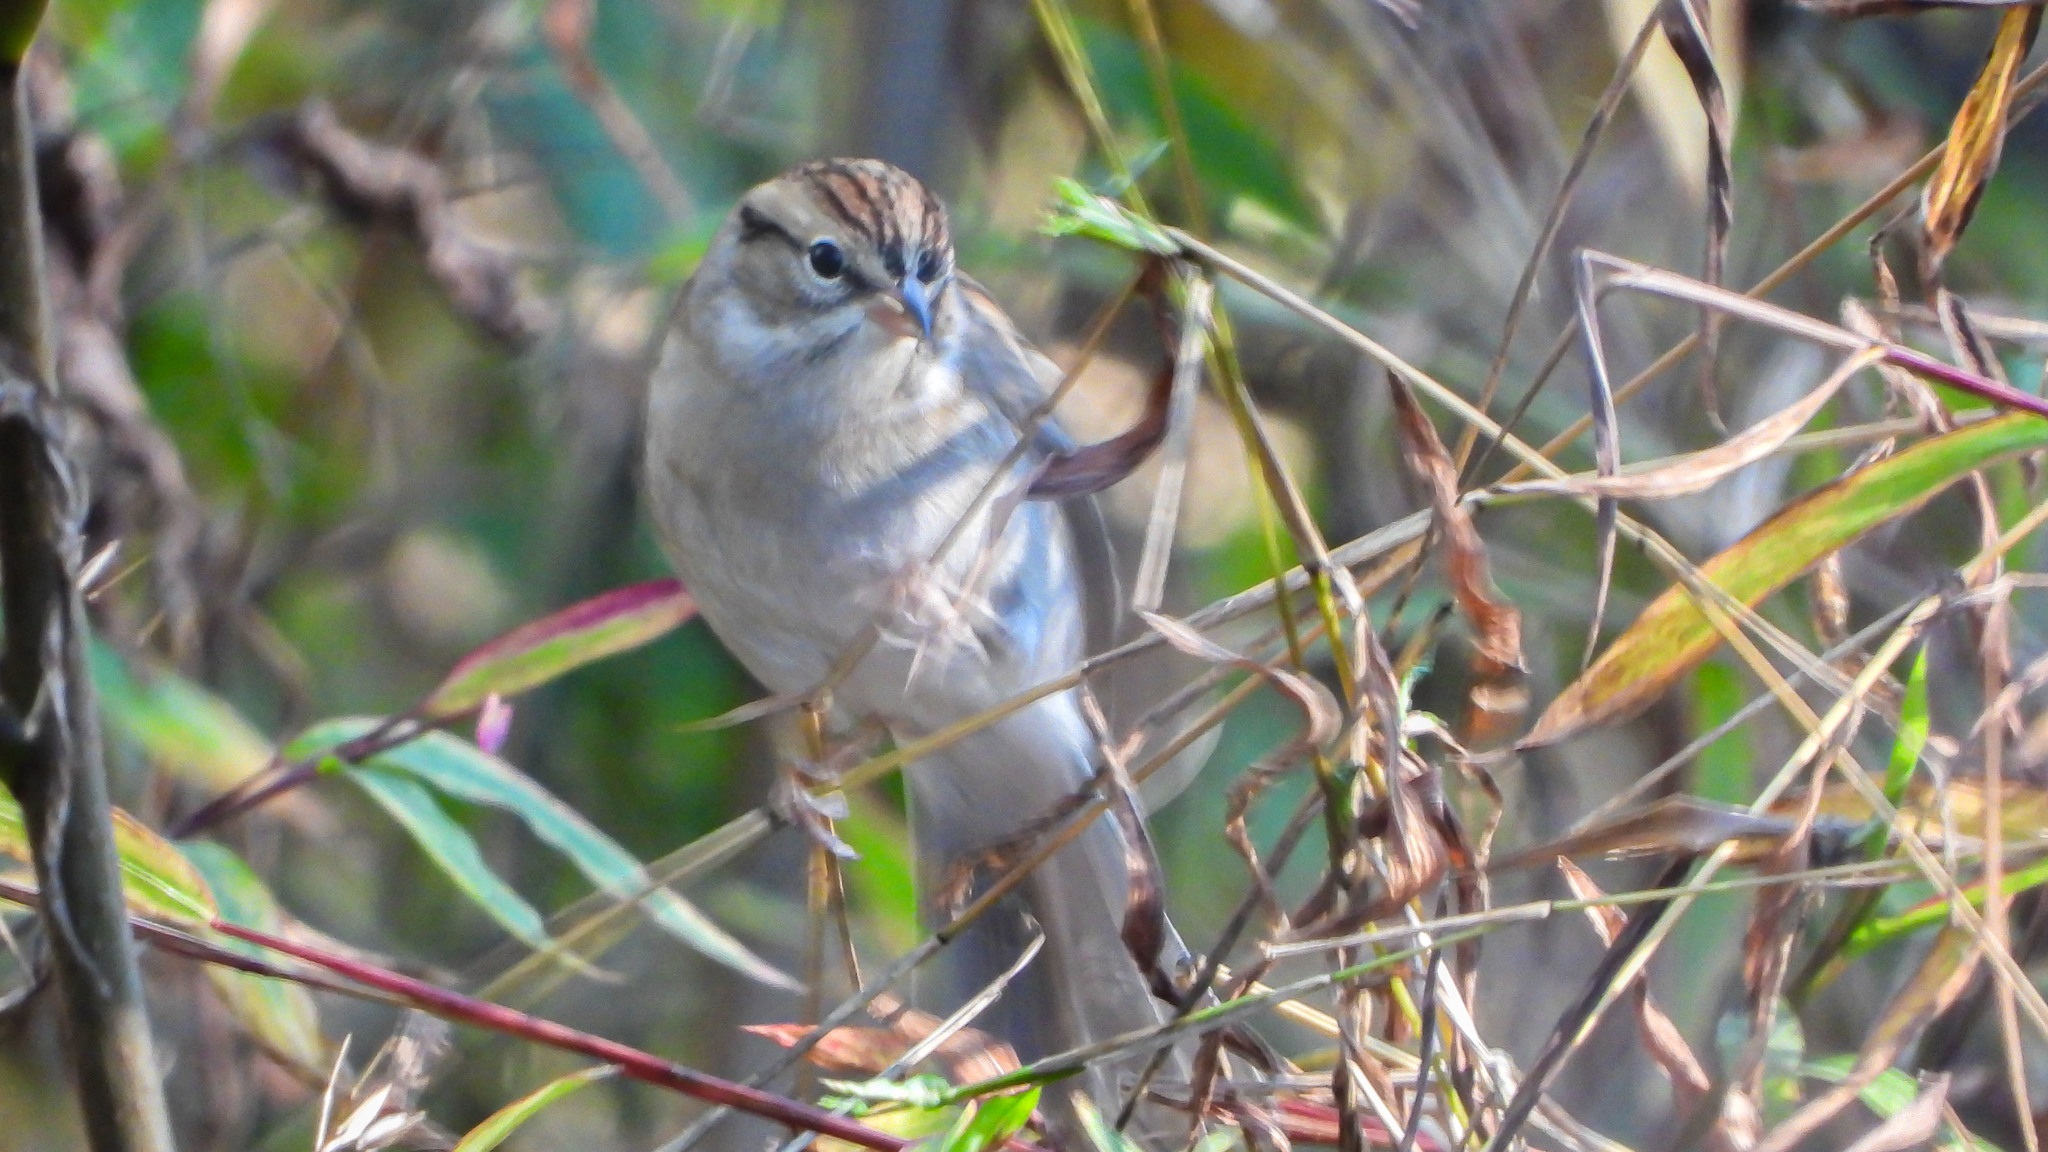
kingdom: Animalia
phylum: Chordata
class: Aves
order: Passeriformes
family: Passerellidae
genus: Spizella
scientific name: Spizella passerina
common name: Chipping sparrow
